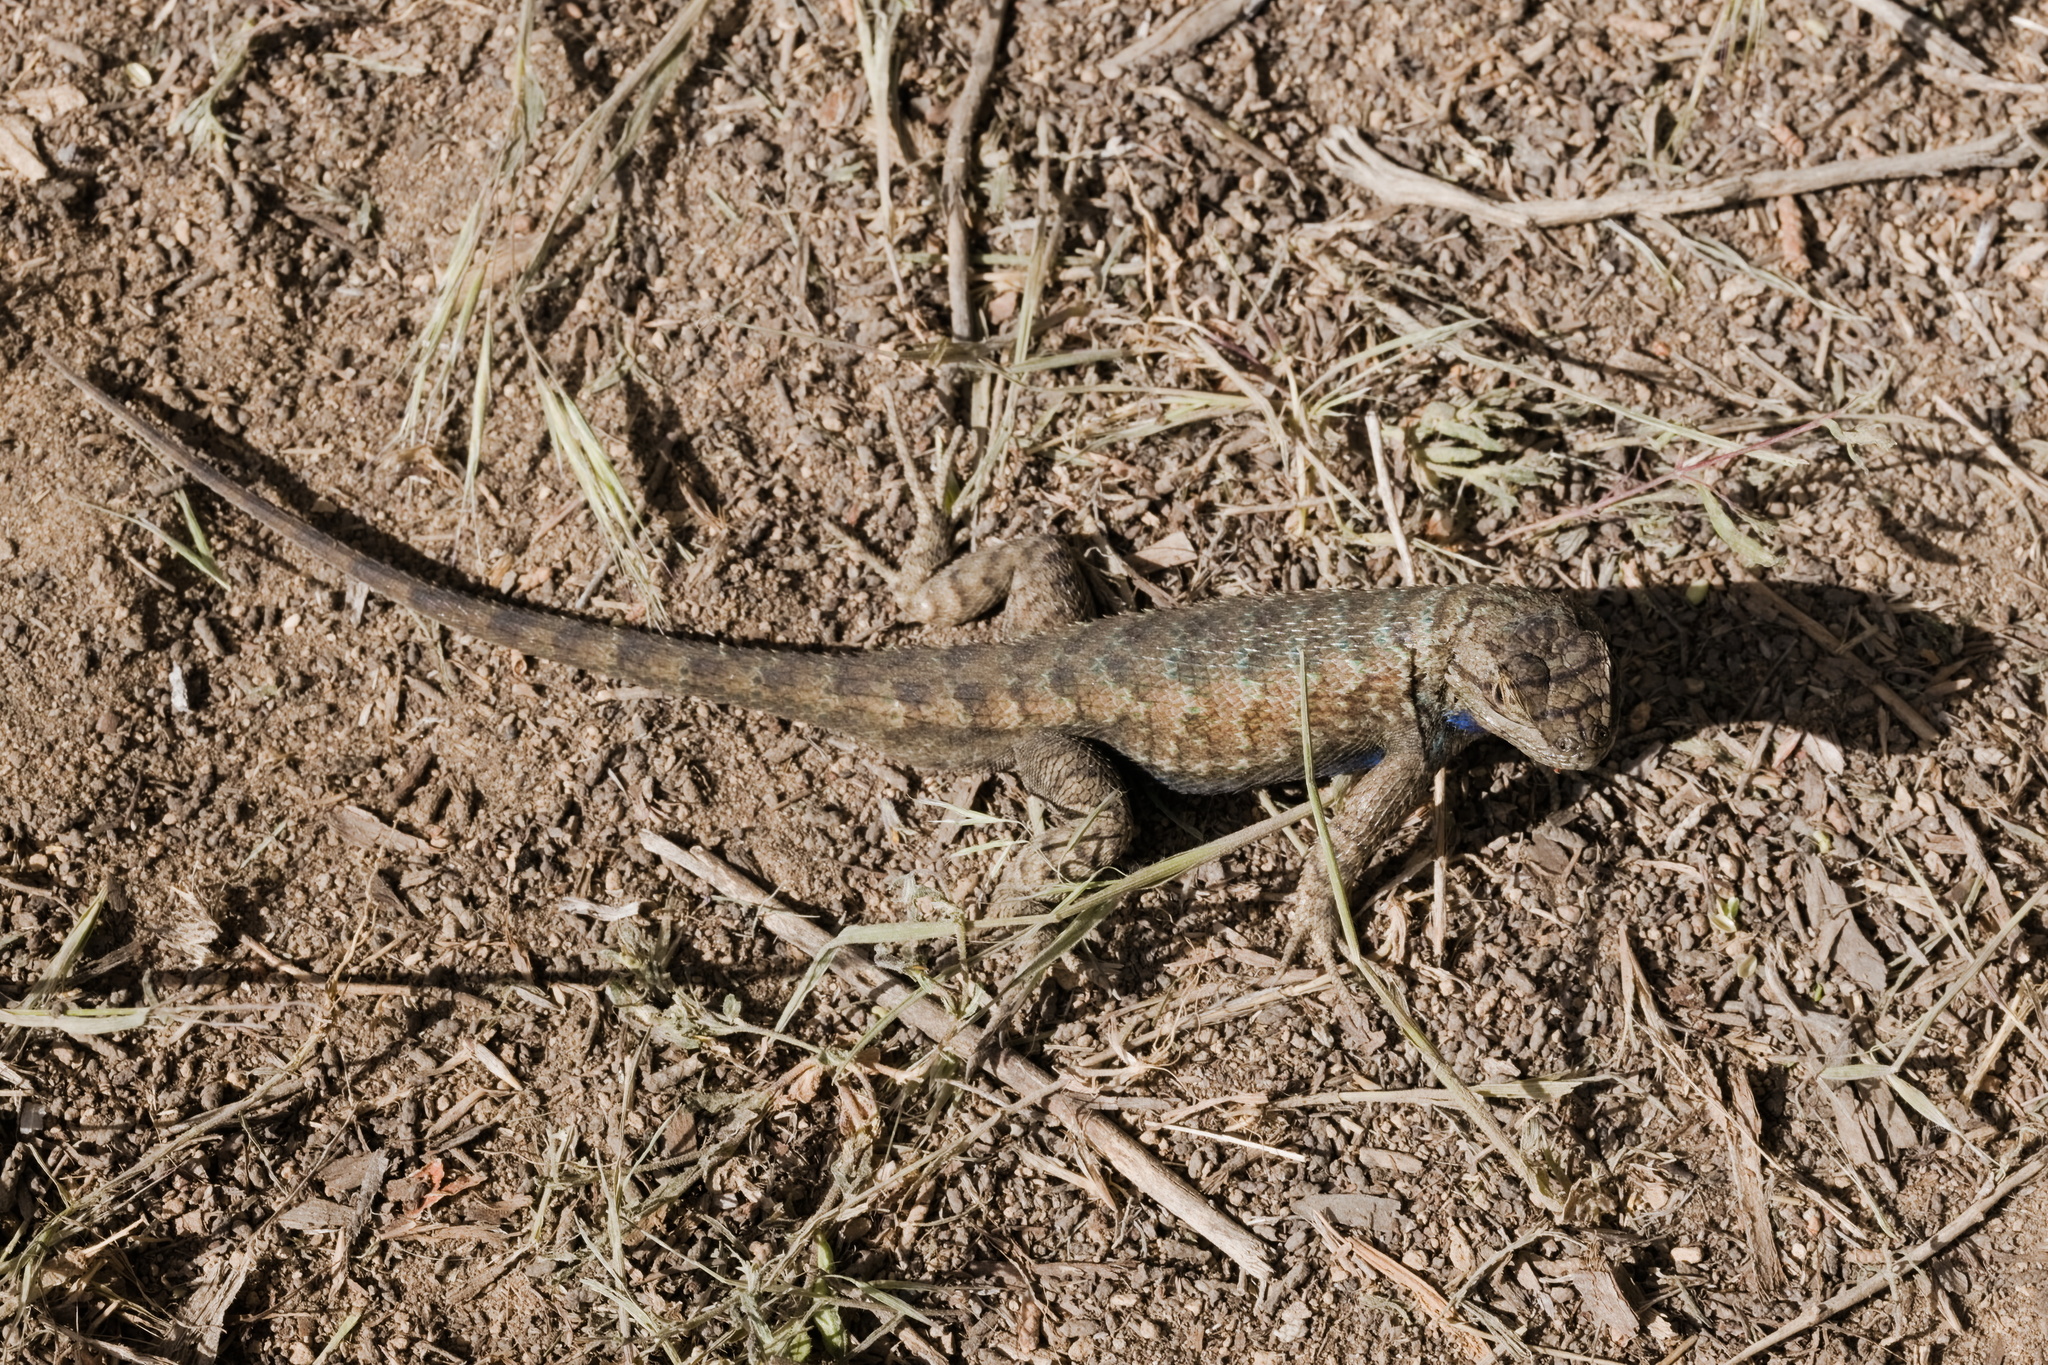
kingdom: Animalia
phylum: Chordata
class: Squamata
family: Phrynosomatidae
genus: Sceloporus
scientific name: Sceloporus occidentalis
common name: Western fence lizard
